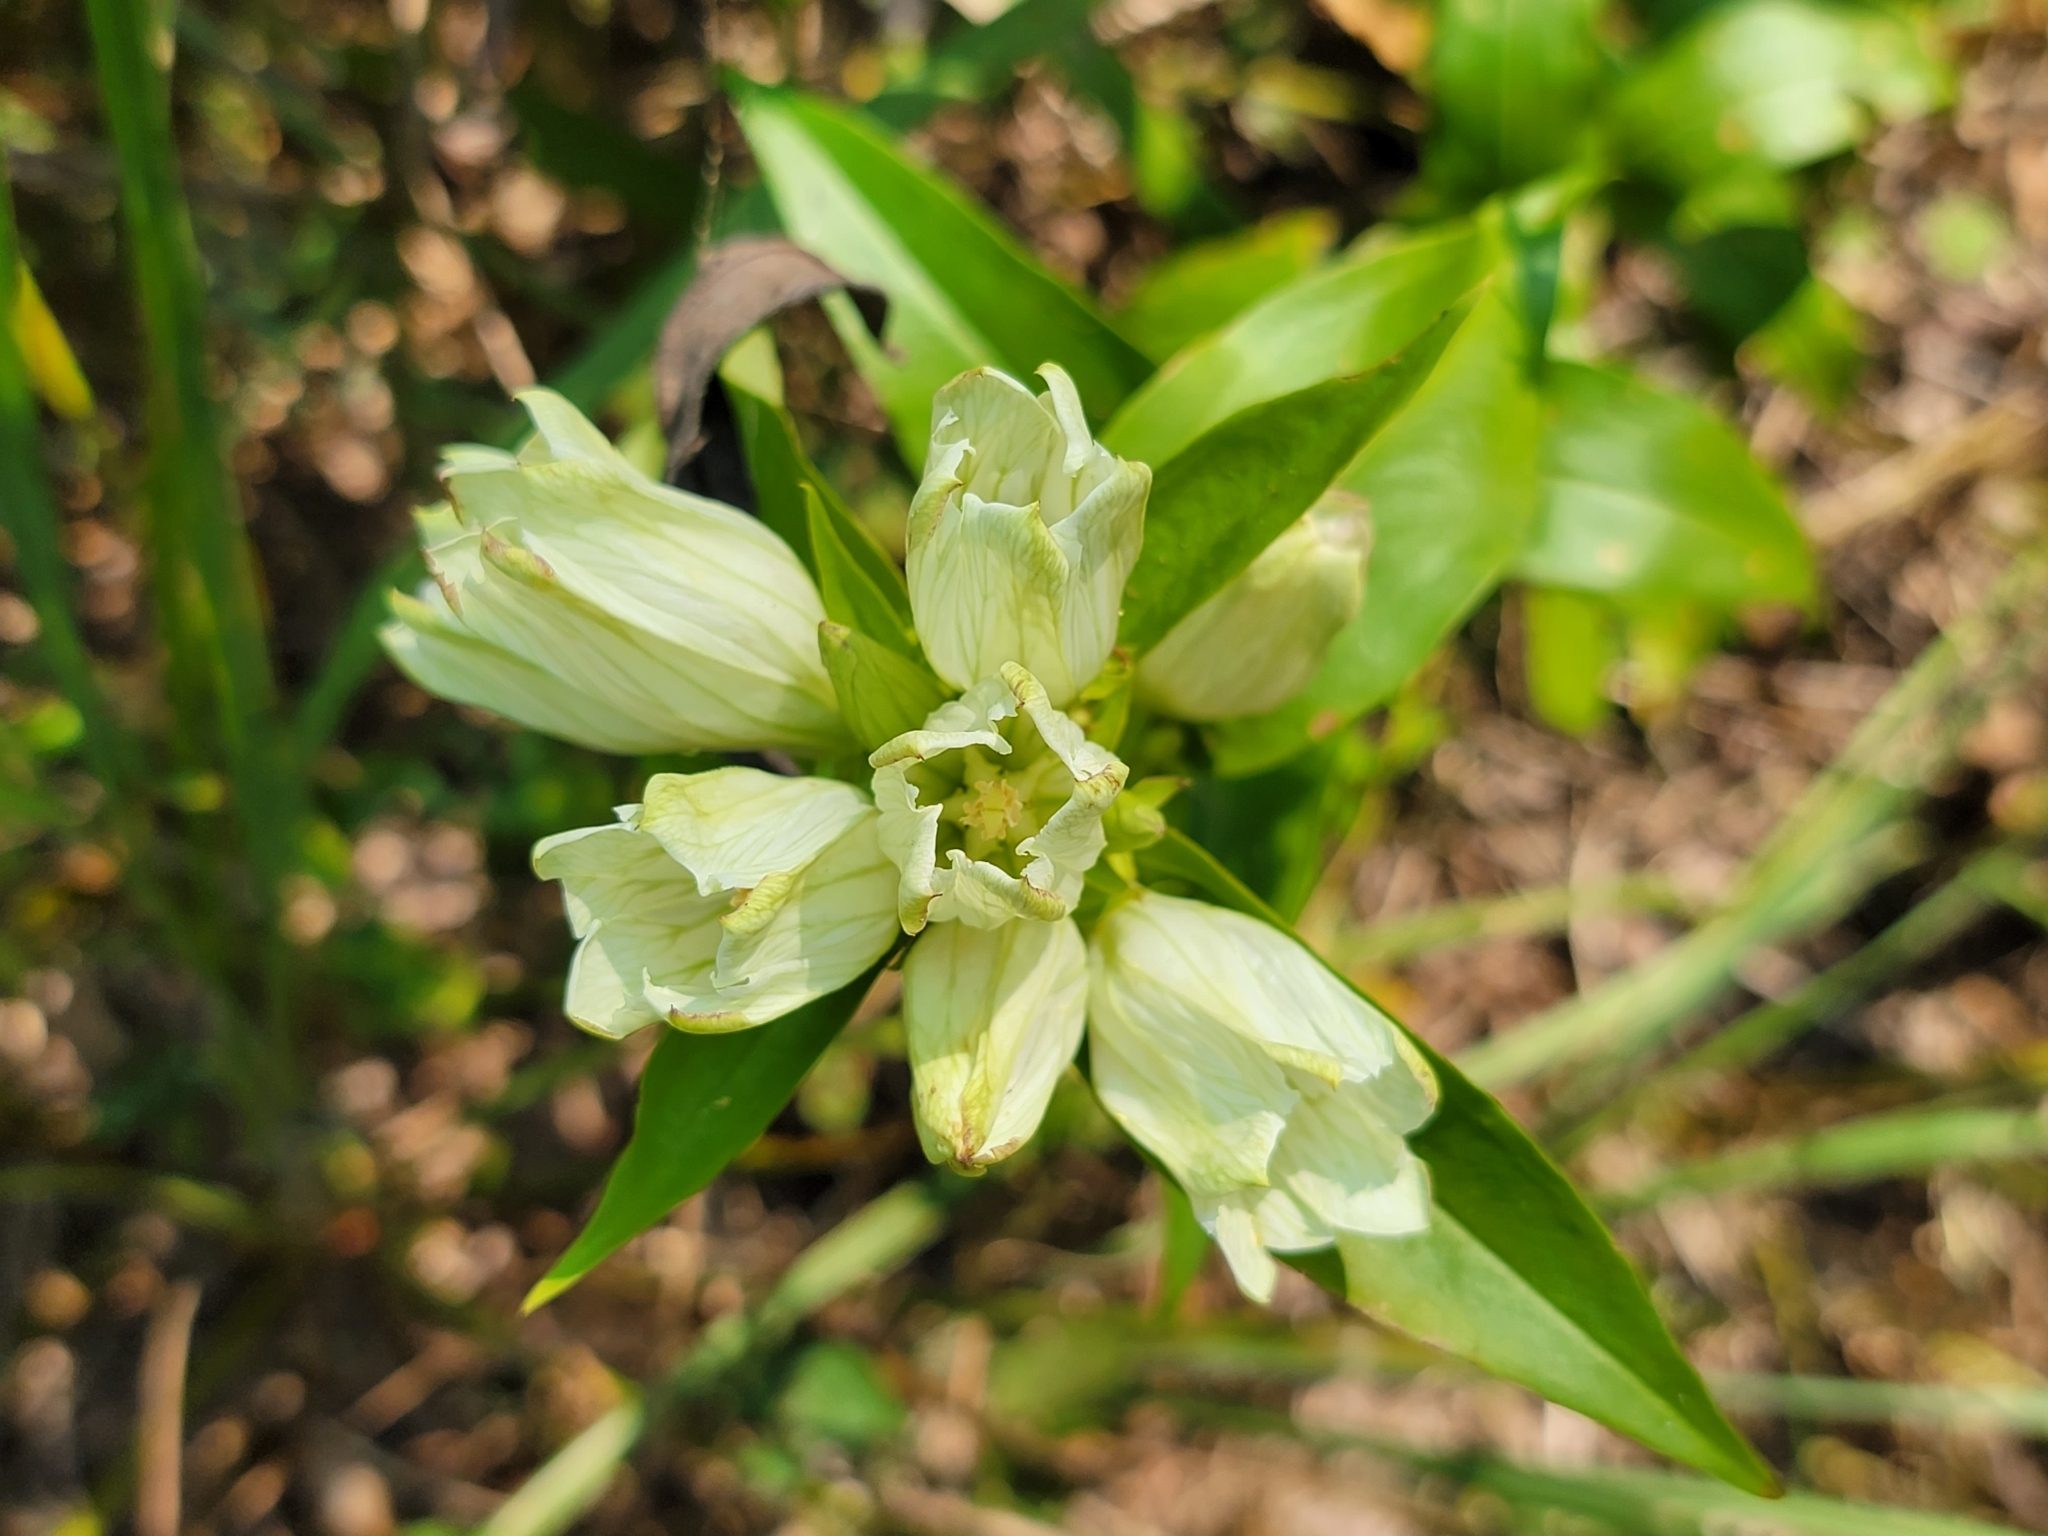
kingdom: Plantae
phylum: Tracheophyta
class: Magnoliopsida
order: Gentianales
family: Gentianaceae
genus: Gentiana
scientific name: Gentiana alba
